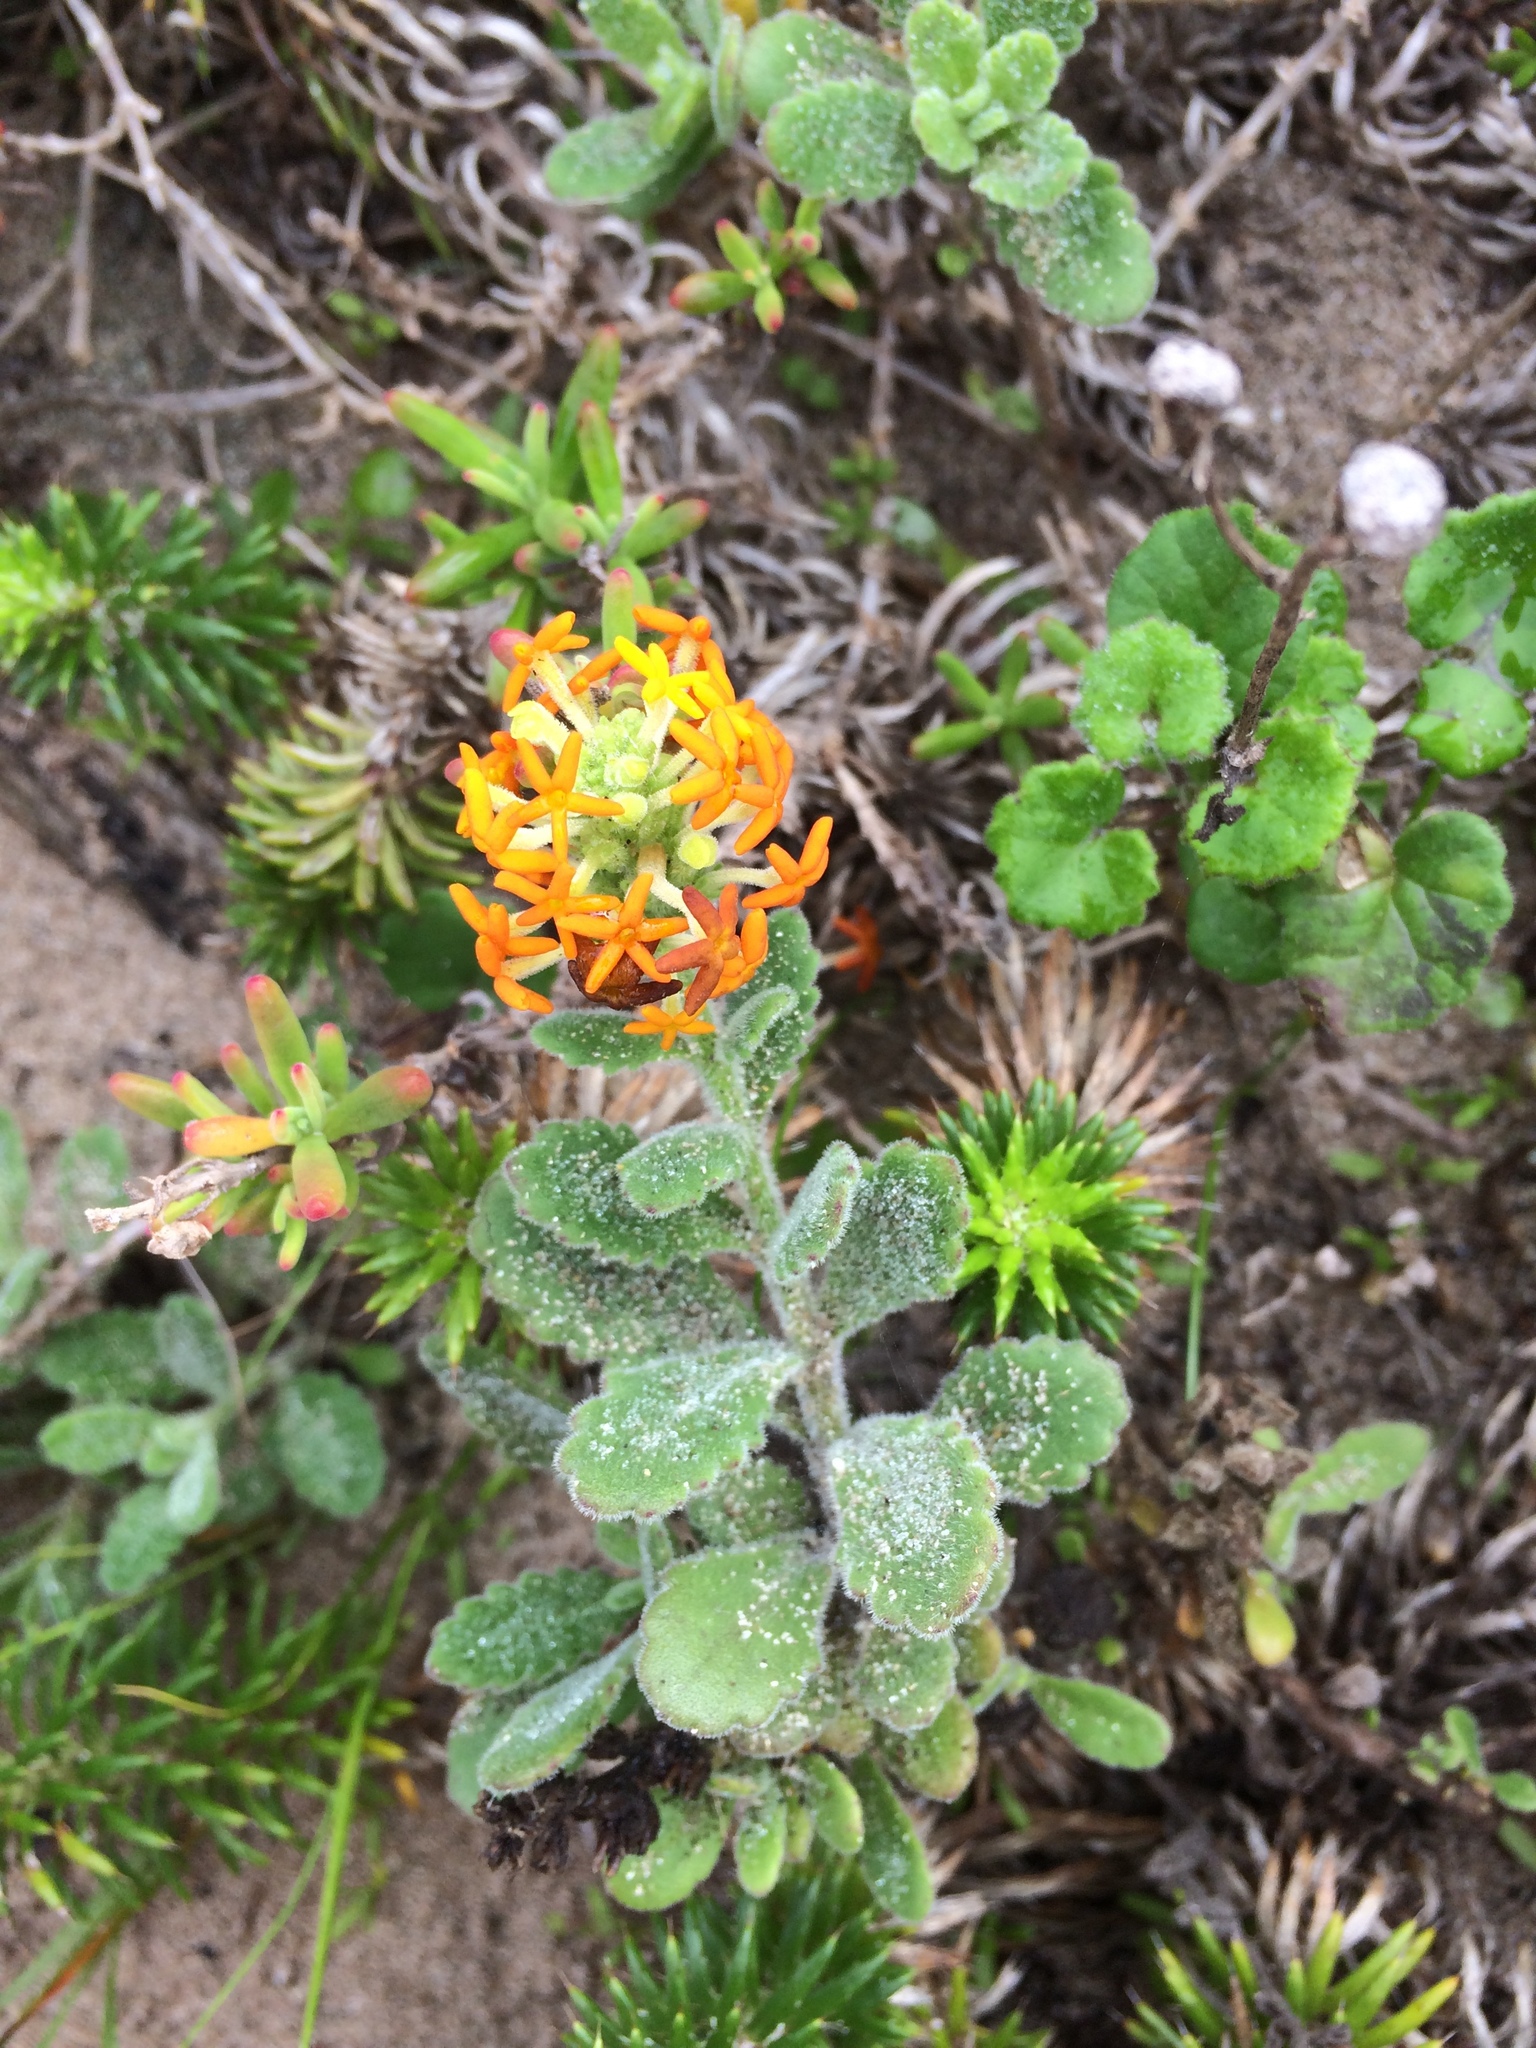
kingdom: Plantae
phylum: Tracheophyta
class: Magnoliopsida
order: Lamiales
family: Scrophulariaceae
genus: Manulea
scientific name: Manulea tomentosa
